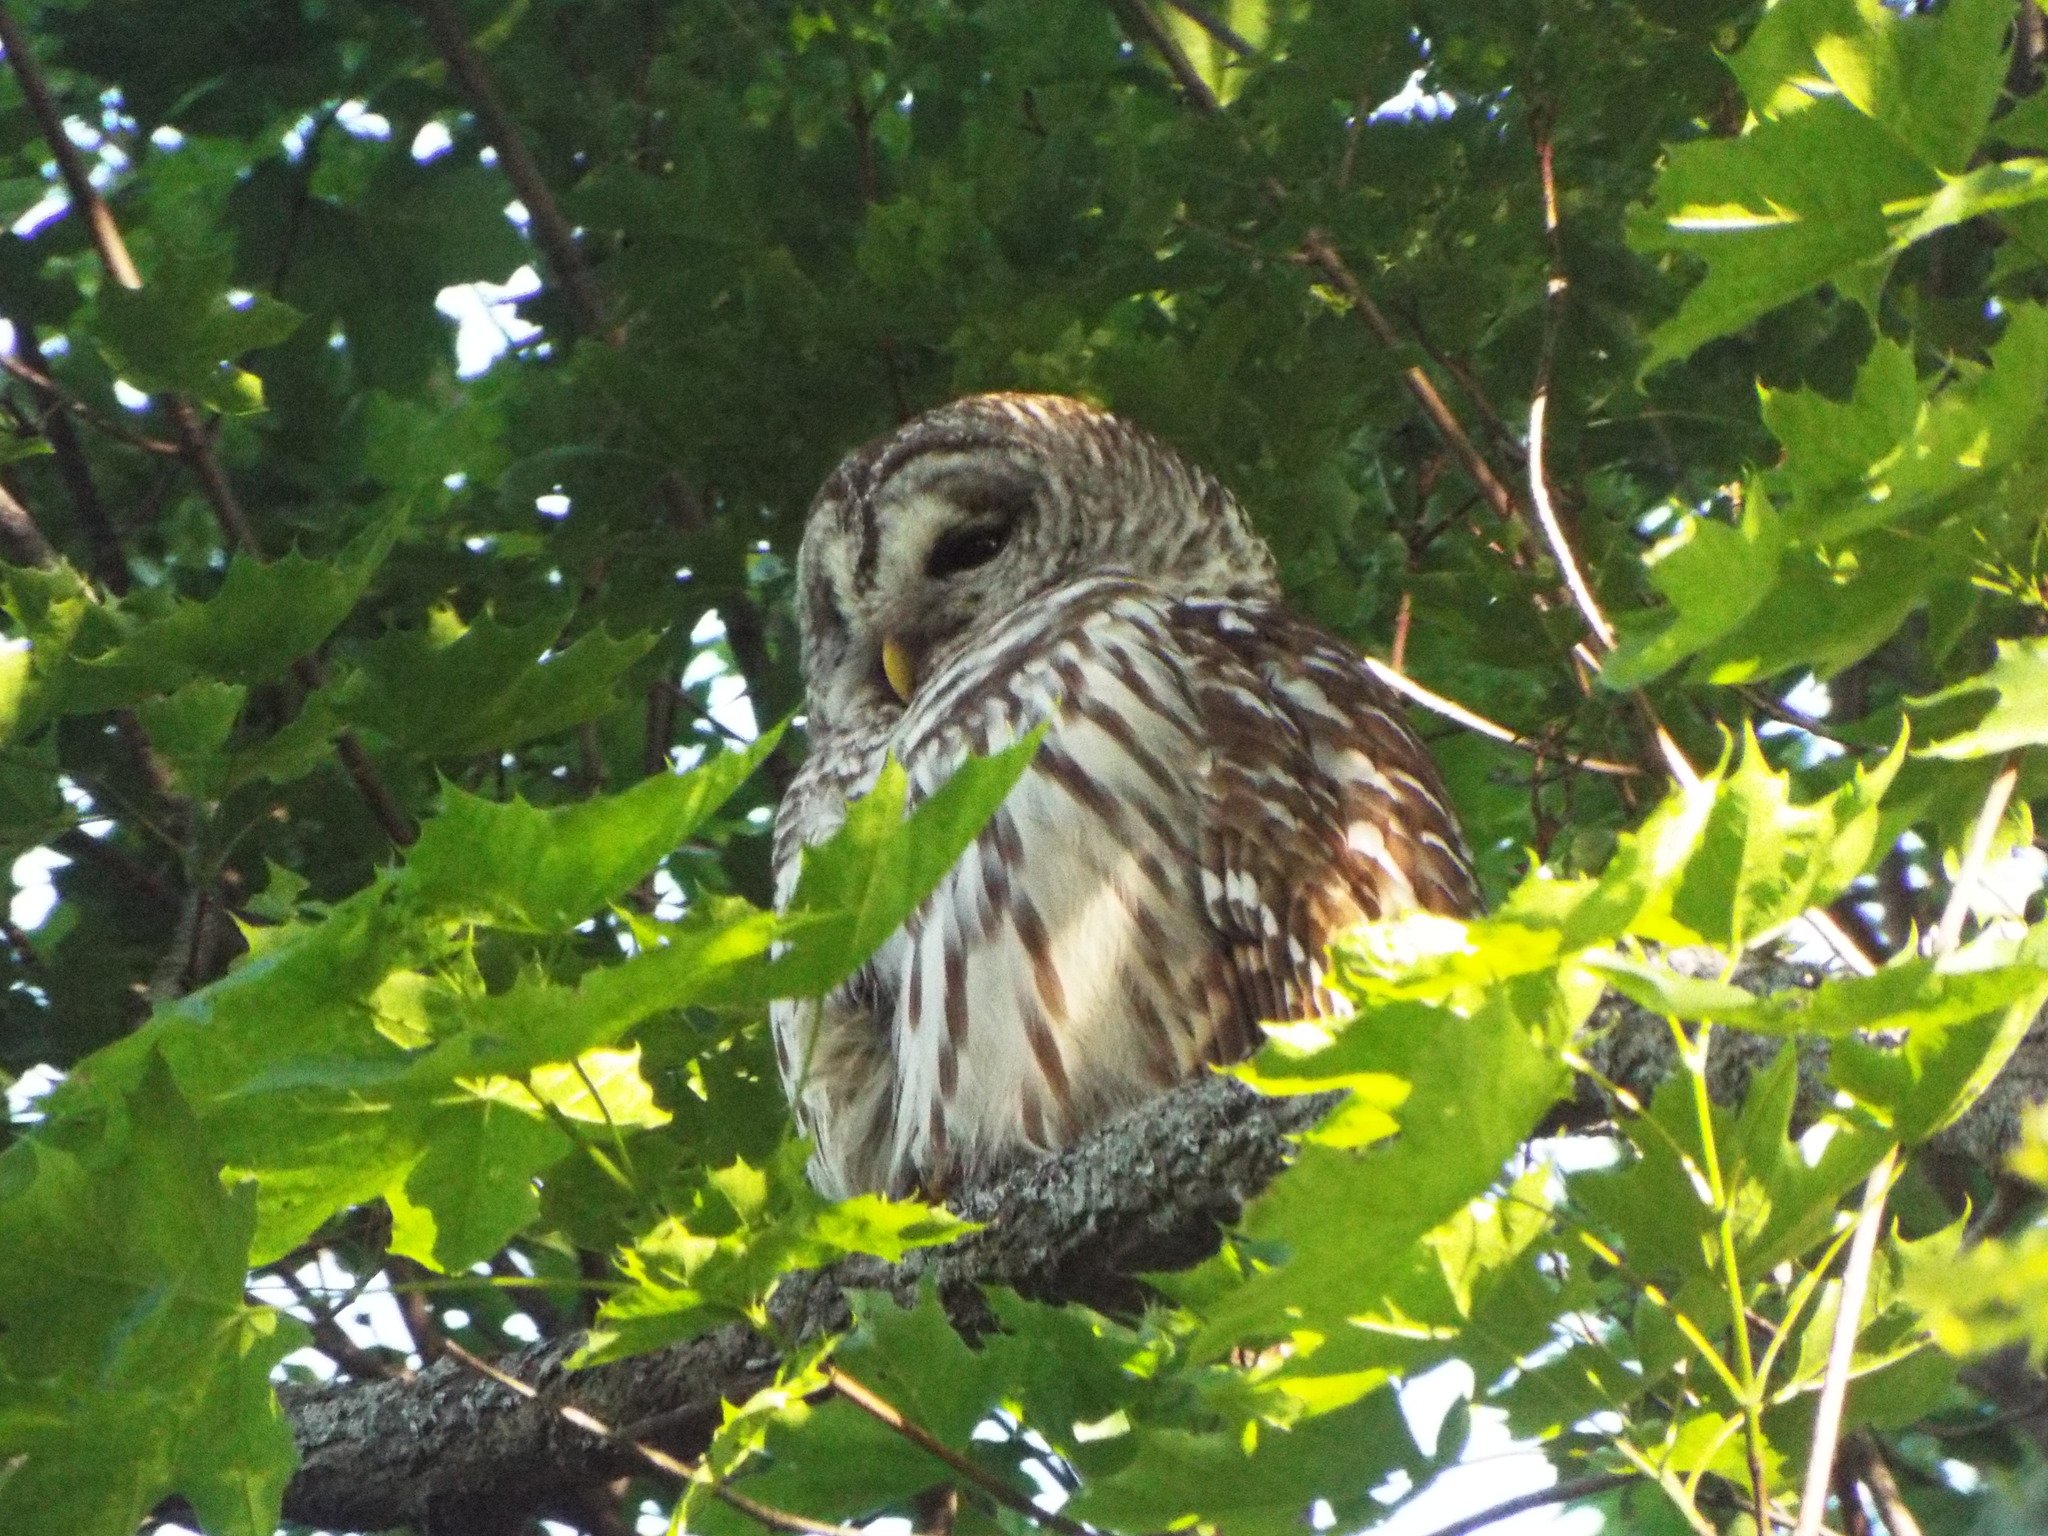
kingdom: Animalia
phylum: Chordata
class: Aves
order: Strigiformes
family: Strigidae
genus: Strix
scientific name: Strix varia
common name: Barred owl
